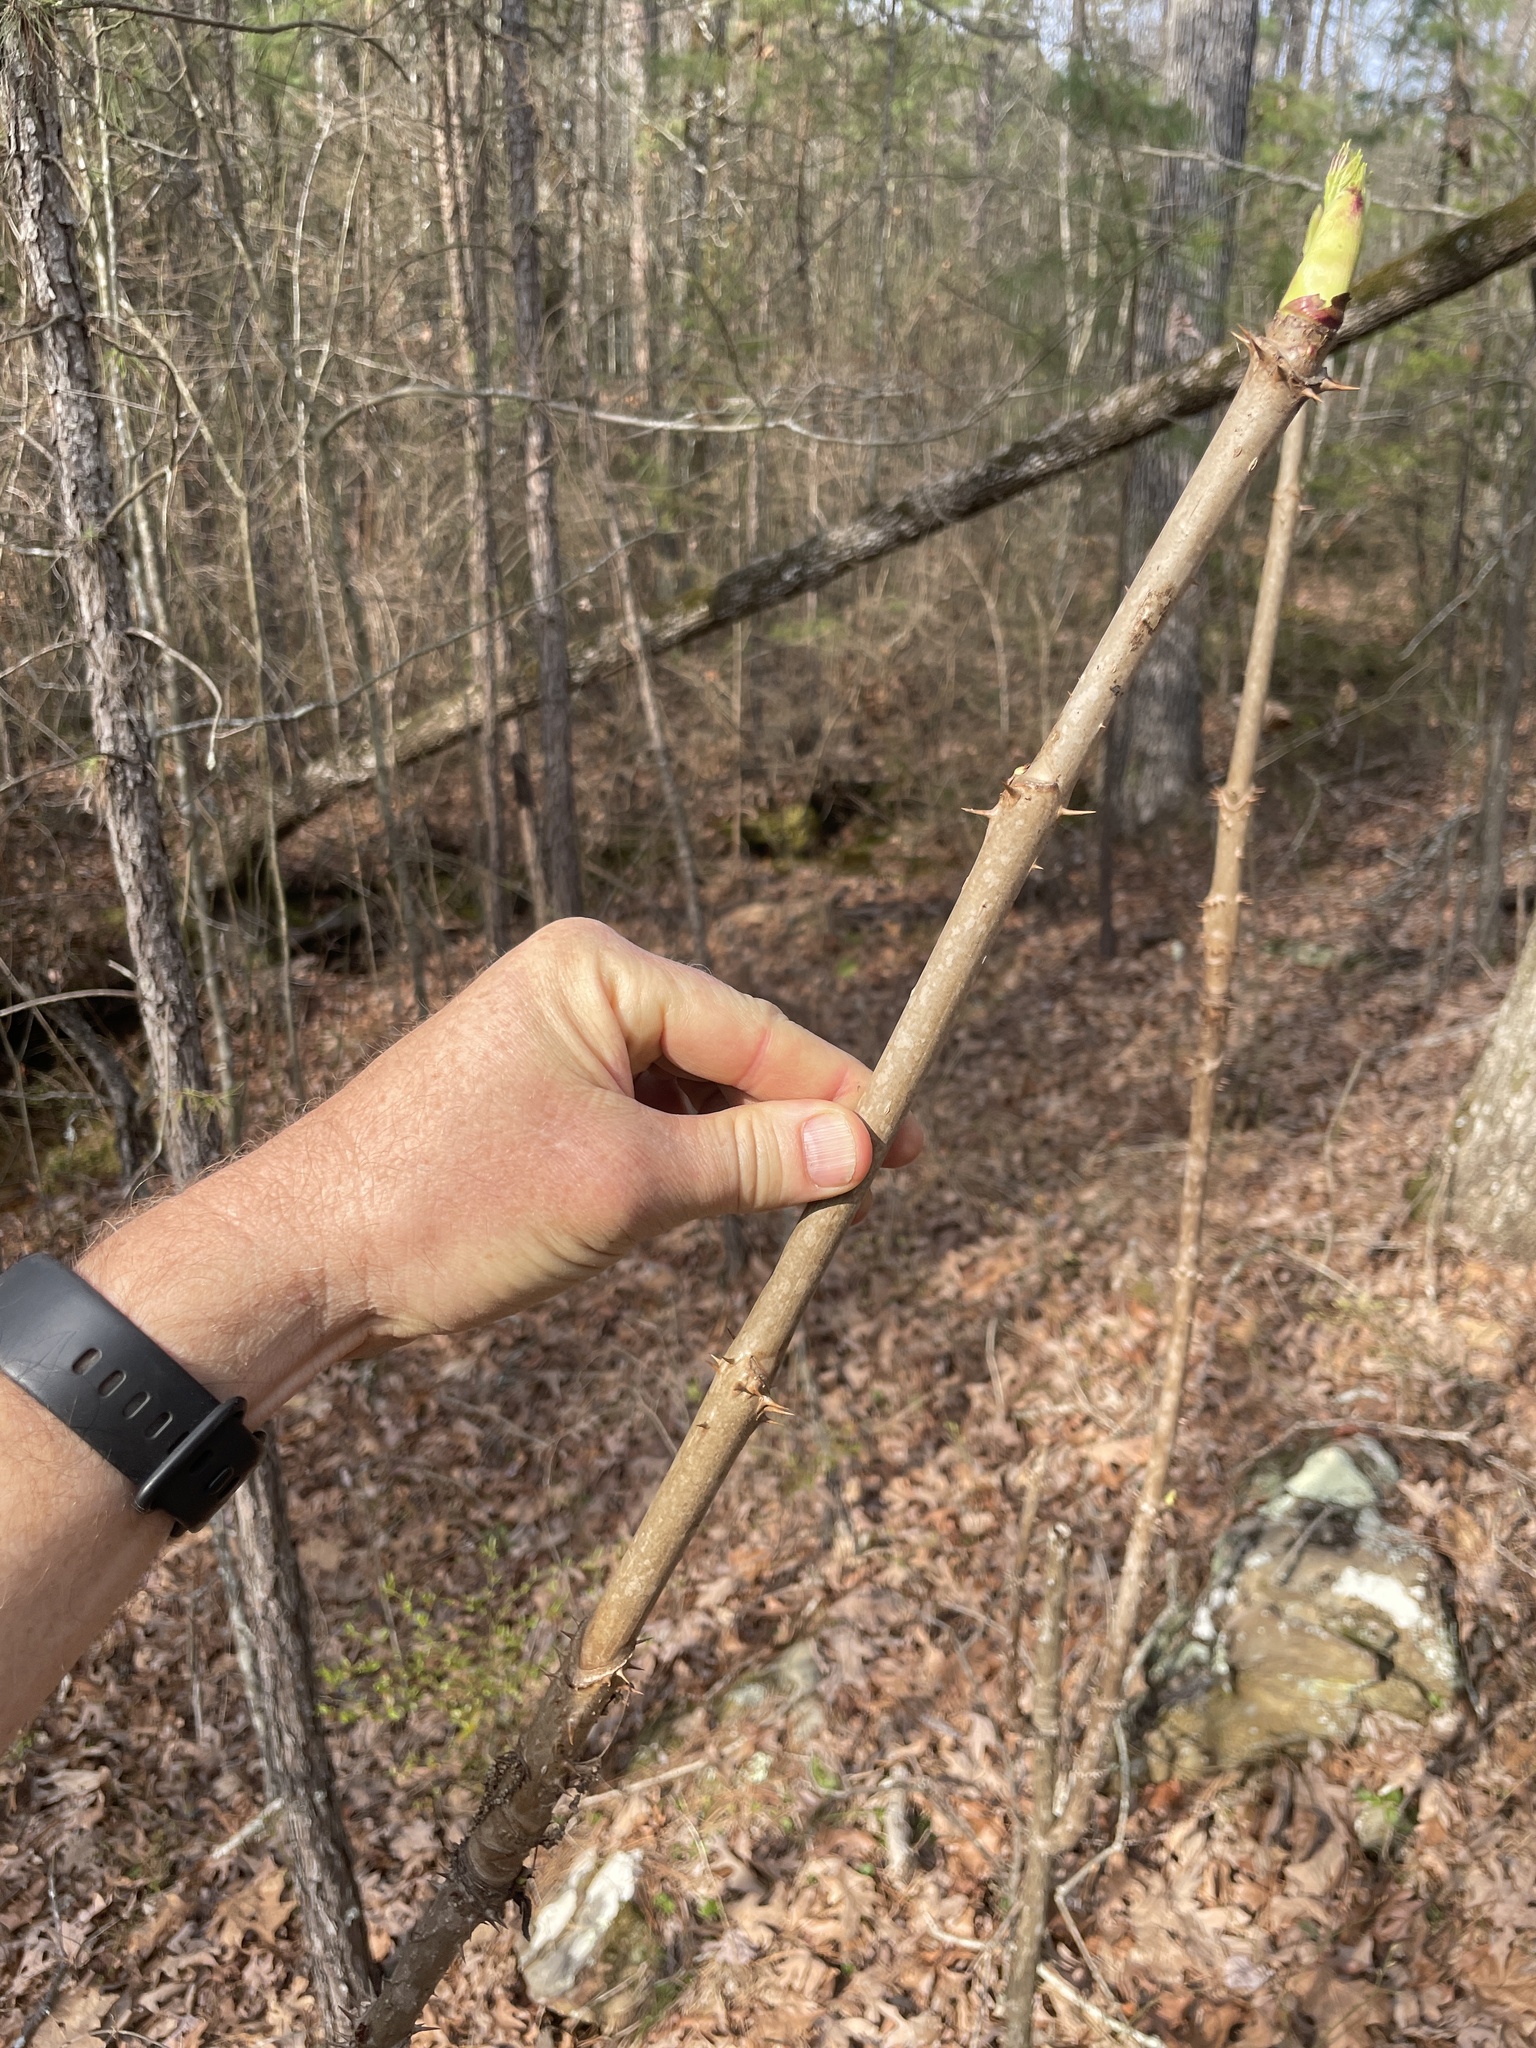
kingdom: Plantae
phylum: Tracheophyta
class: Magnoliopsida
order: Apiales
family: Araliaceae
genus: Aralia
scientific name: Aralia spinosa
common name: Hercules'-club
